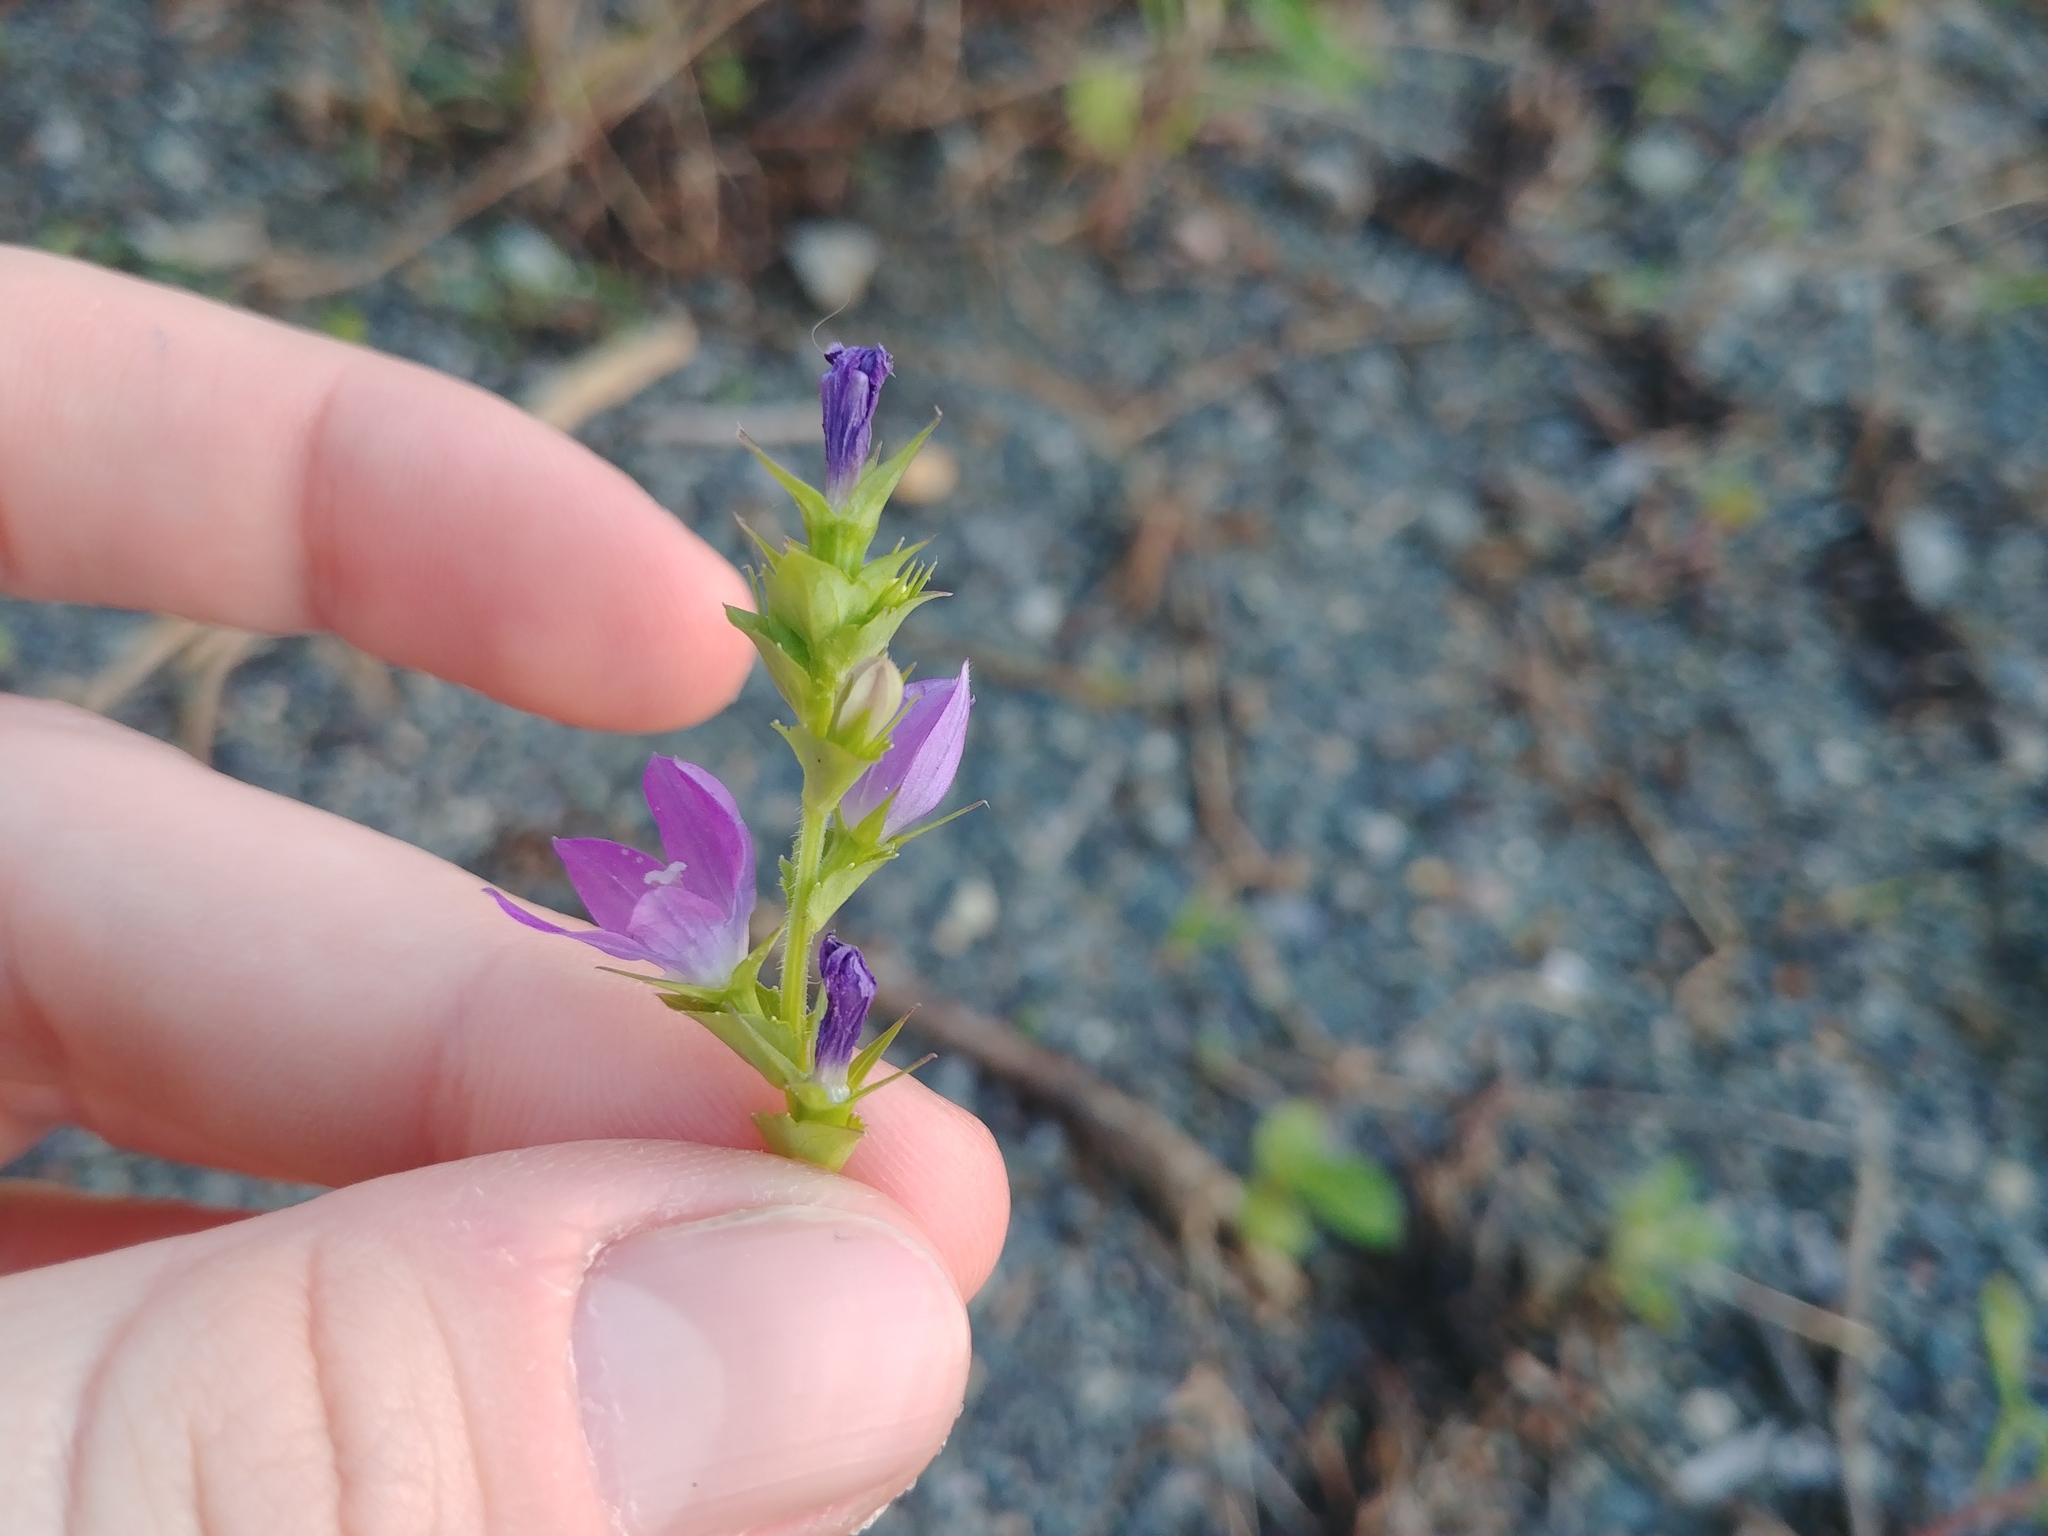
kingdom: Plantae
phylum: Tracheophyta
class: Magnoliopsida
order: Asterales
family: Campanulaceae
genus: Triodanis
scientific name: Triodanis perfoliata
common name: Clasping venus' looking-glass
